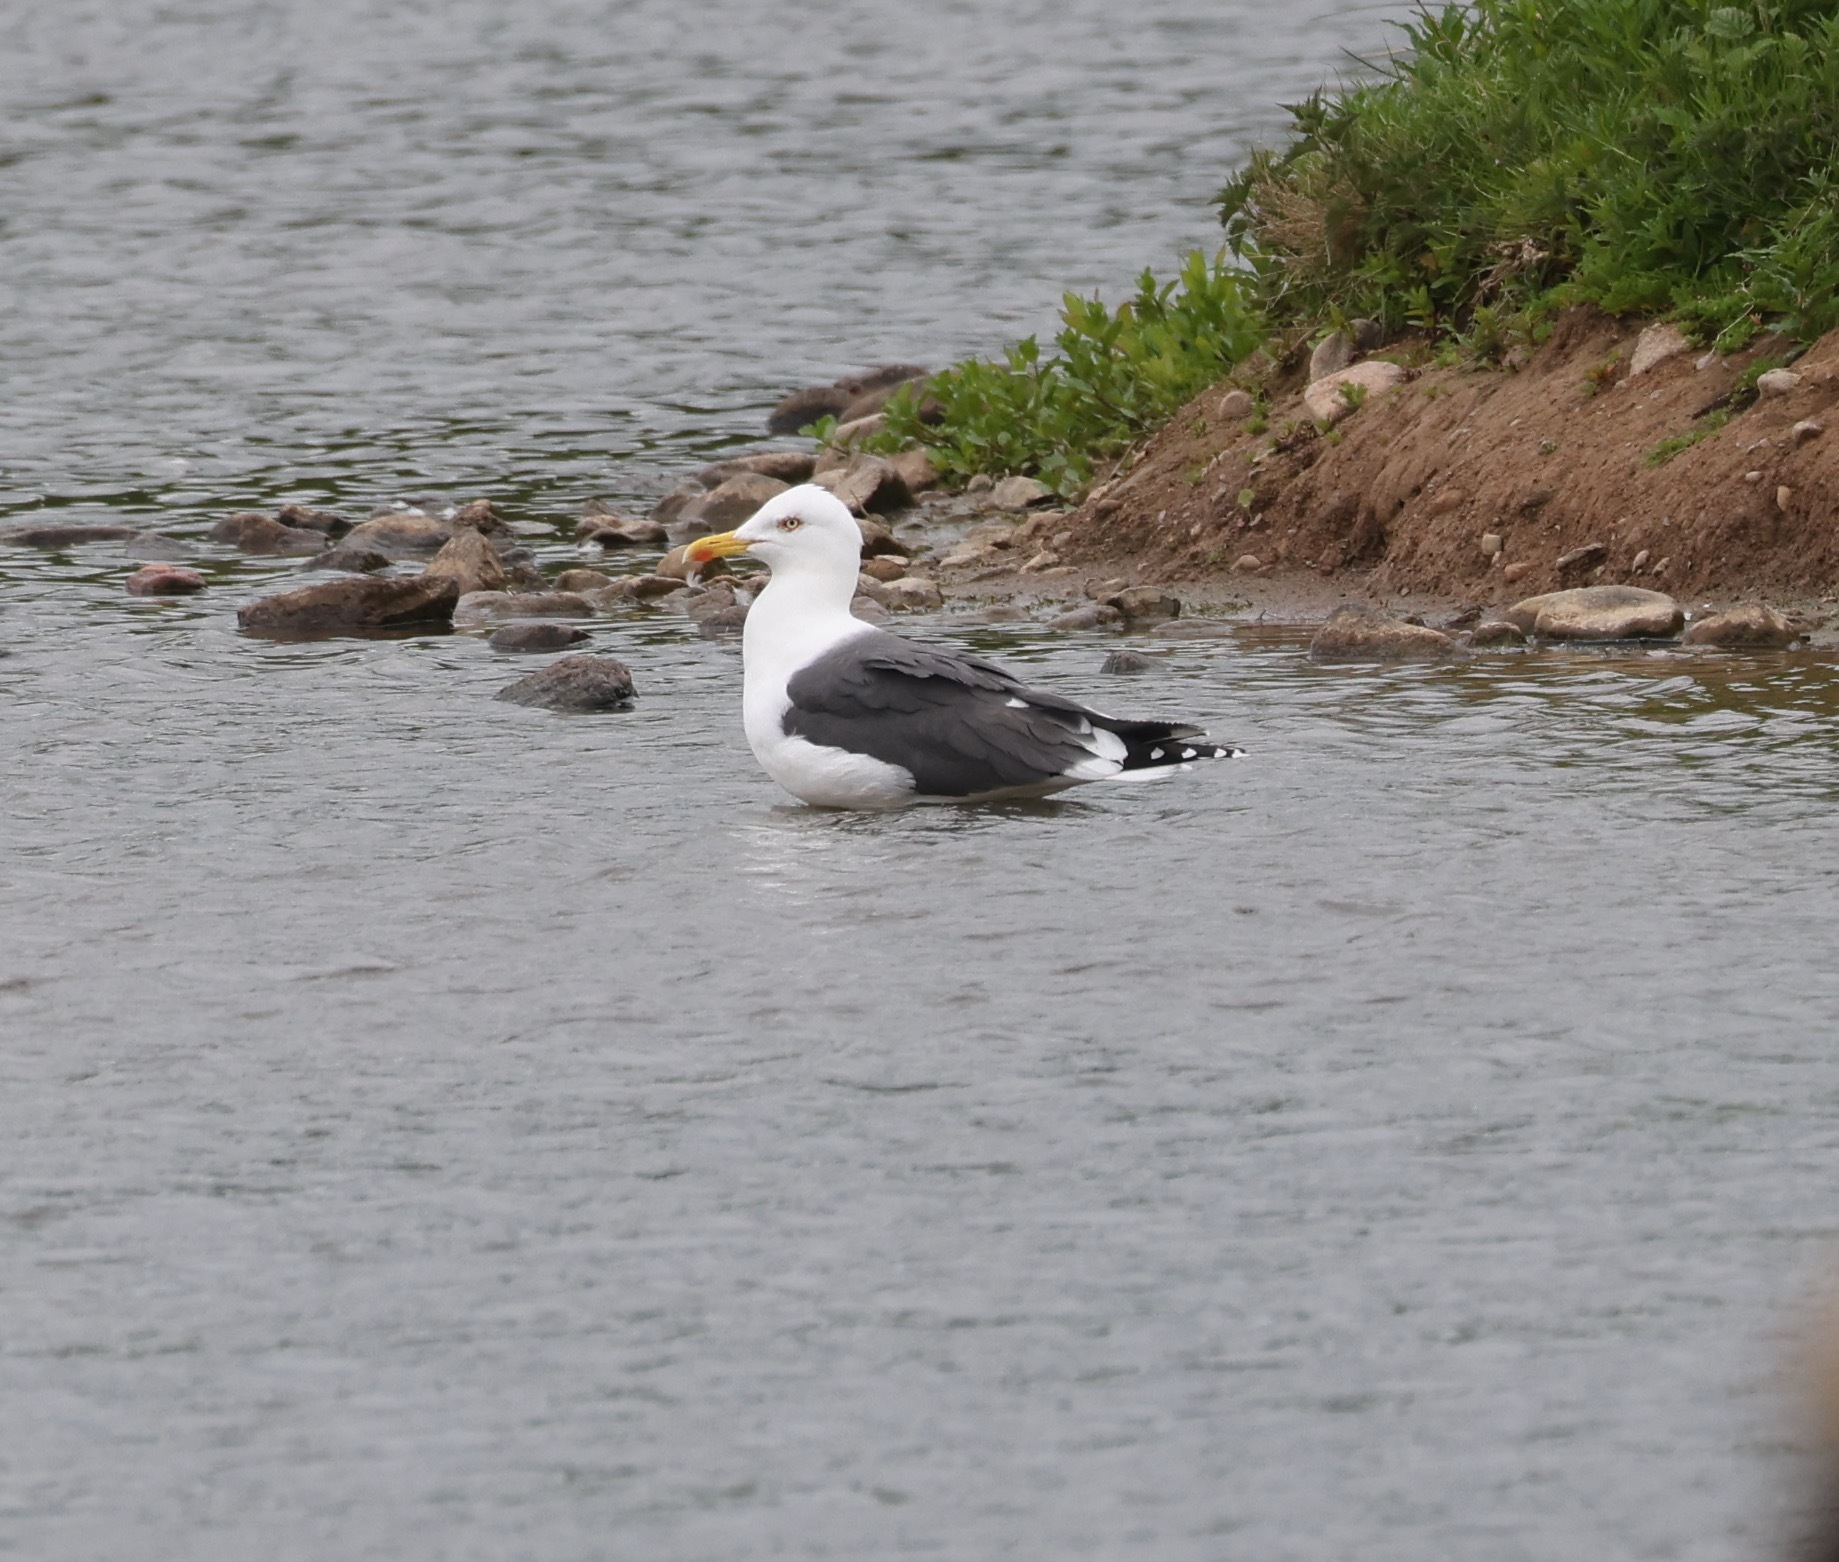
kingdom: Animalia
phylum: Chordata
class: Aves
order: Charadriiformes
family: Laridae
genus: Larus
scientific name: Larus fuscus
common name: Lesser black-backed gull
